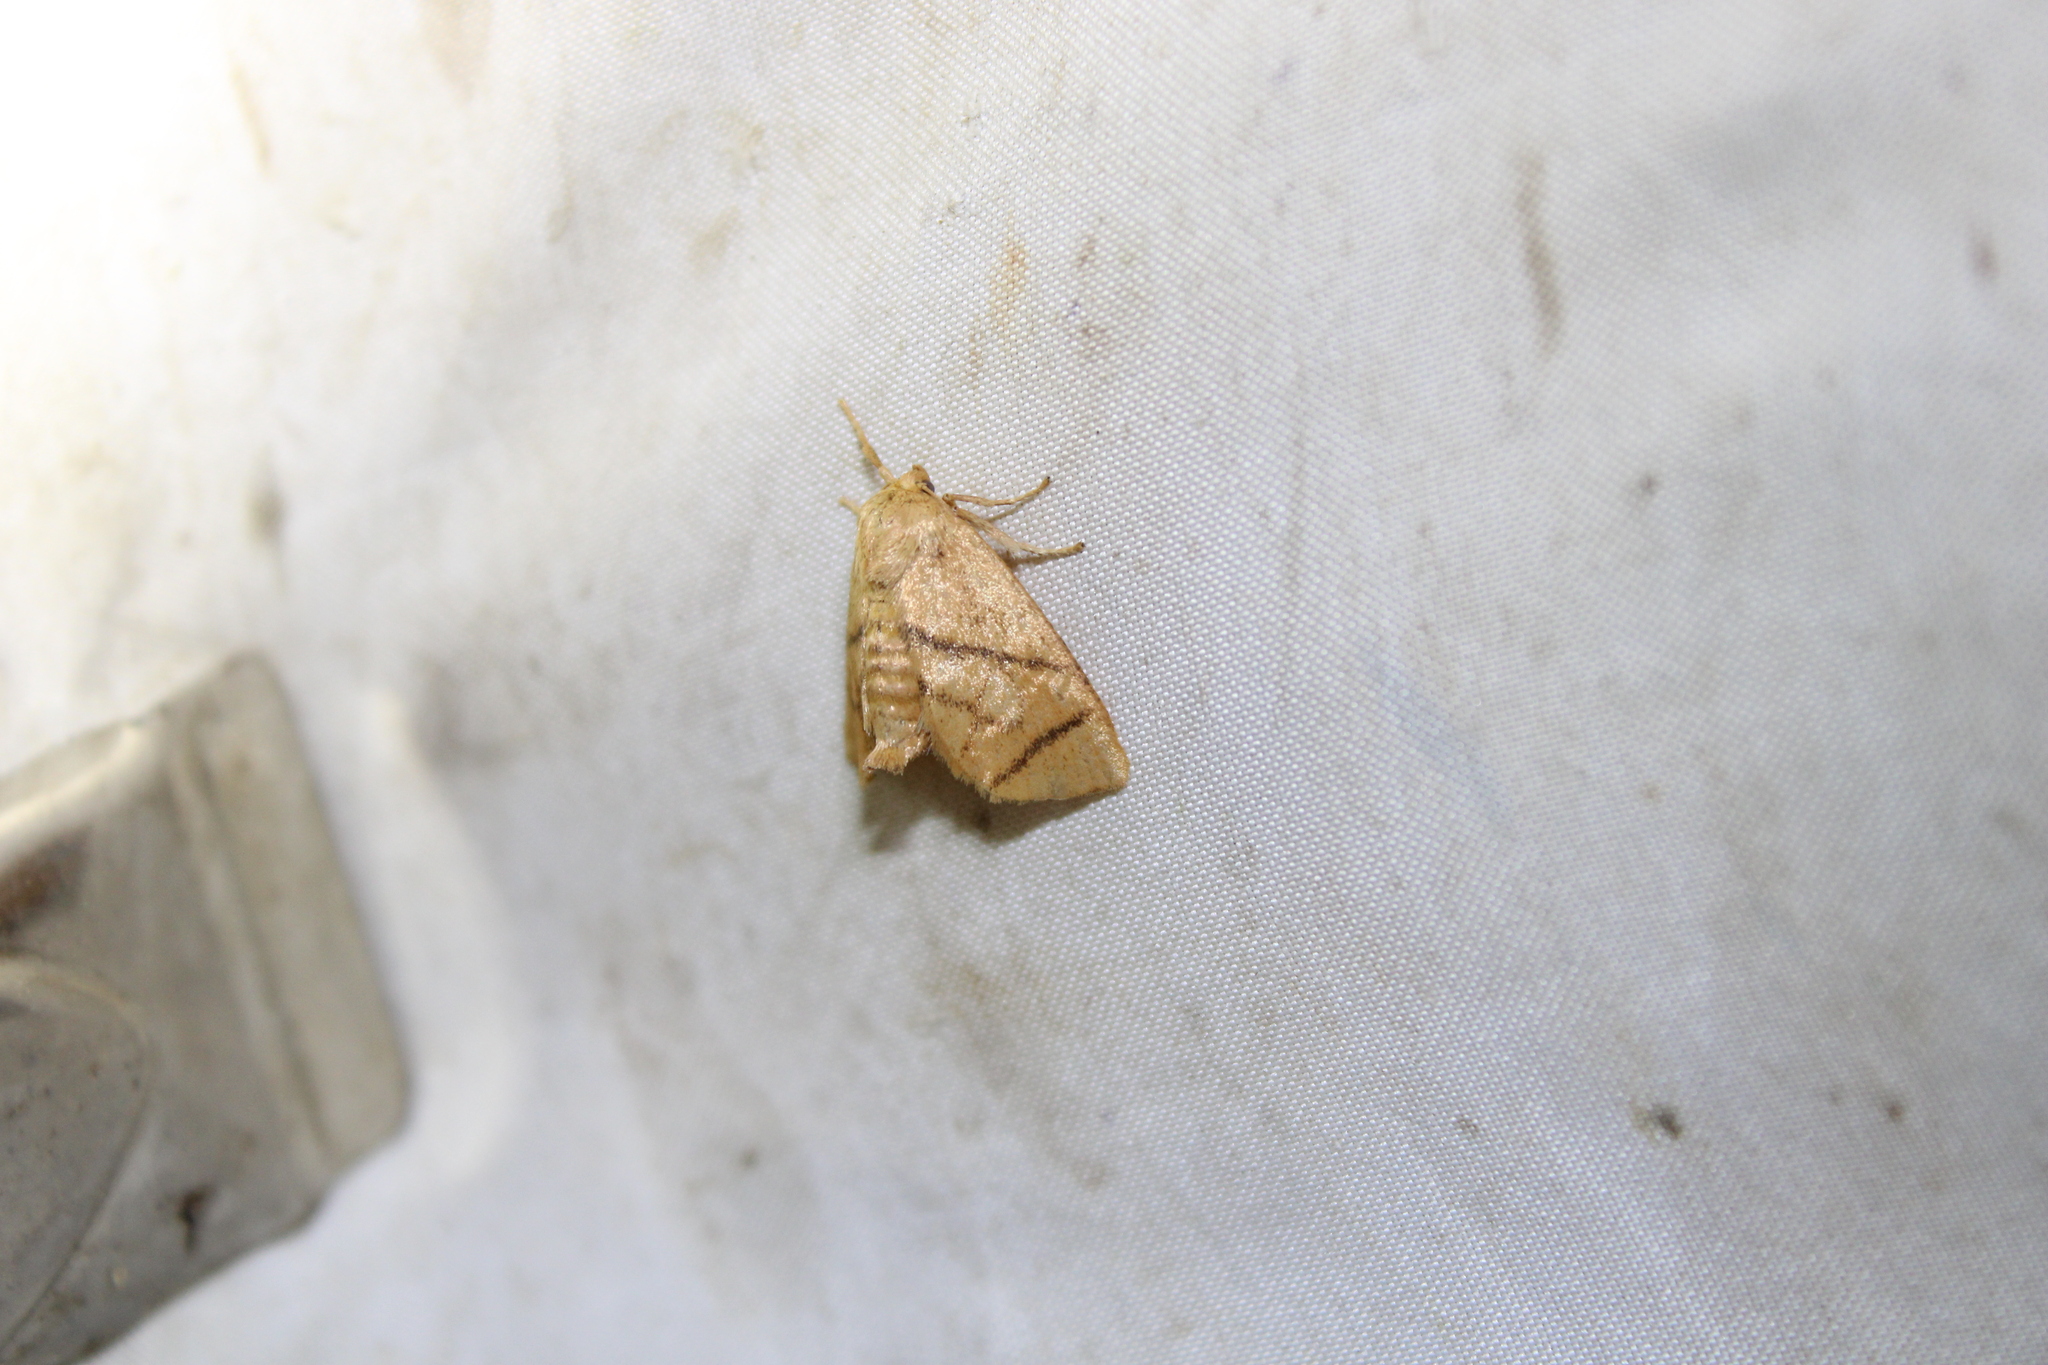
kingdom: Animalia
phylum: Arthropoda
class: Insecta
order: Lepidoptera
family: Limacodidae
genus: Apoda
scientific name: Apoda y-inversa
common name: Yellow-collared slug moth
